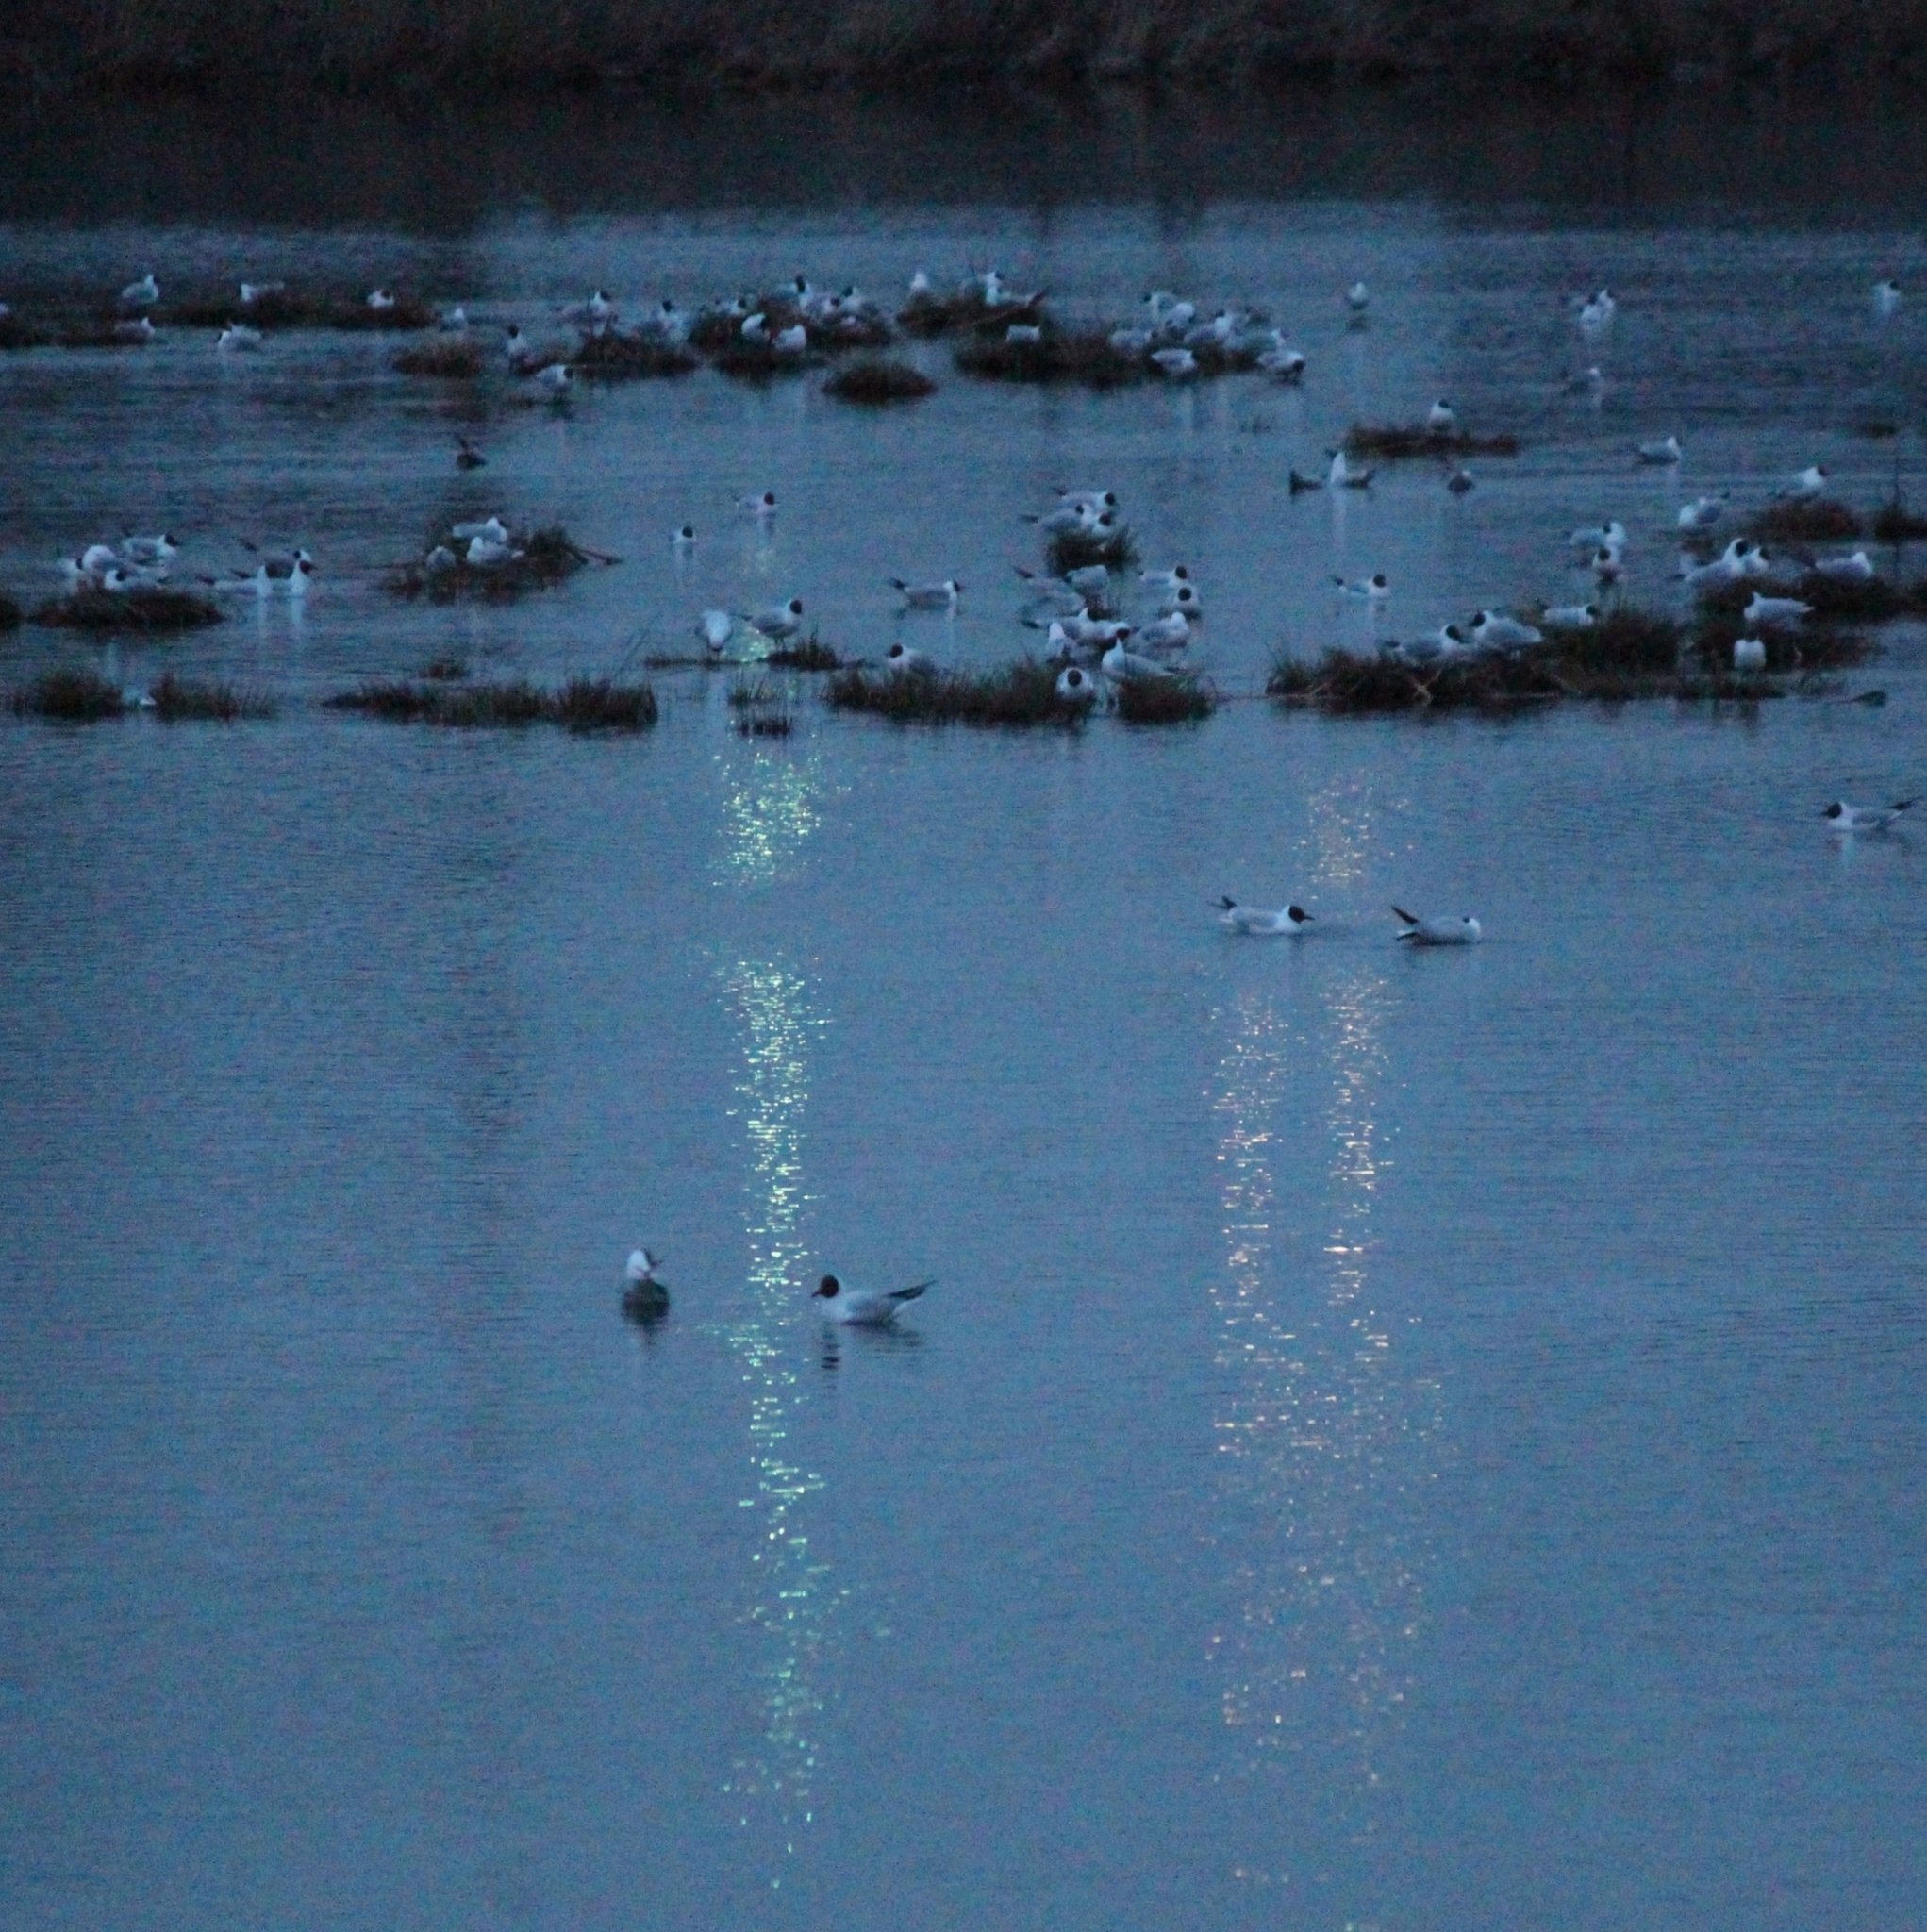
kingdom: Animalia
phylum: Chordata
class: Aves
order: Charadriiformes
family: Laridae
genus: Chroicocephalus
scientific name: Chroicocephalus ridibundus
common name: Black-headed gull
